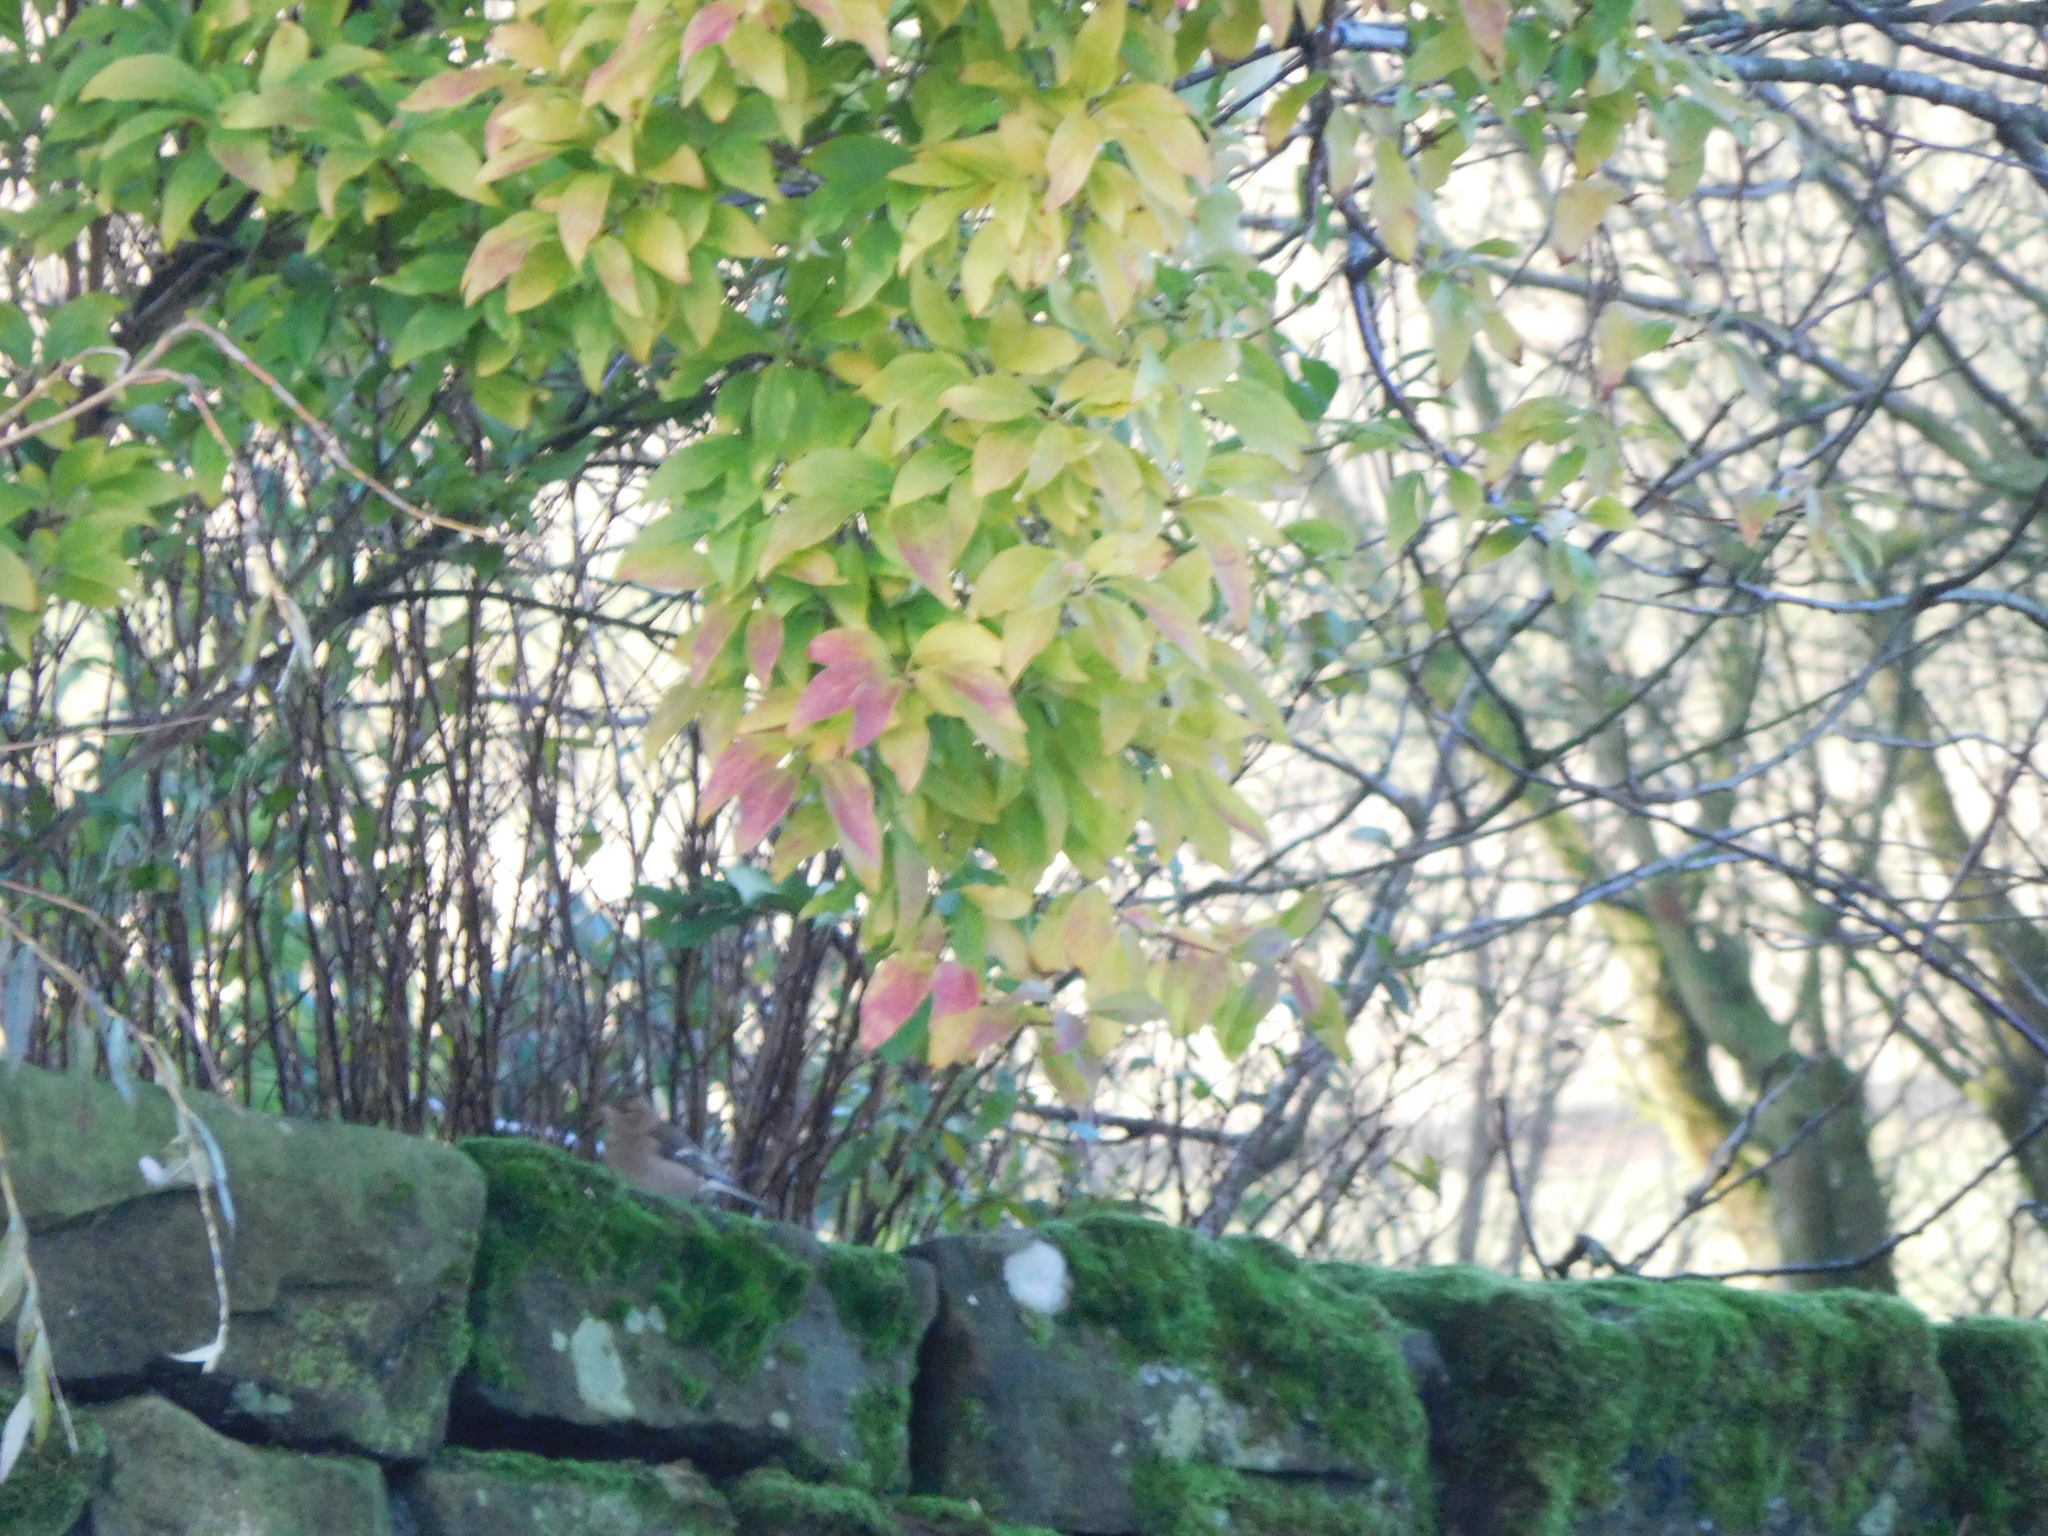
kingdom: Animalia
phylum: Chordata
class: Aves
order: Passeriformes
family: Fringillidae
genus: Fringilla
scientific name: Fringilla coelebs
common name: Common chaffinch
